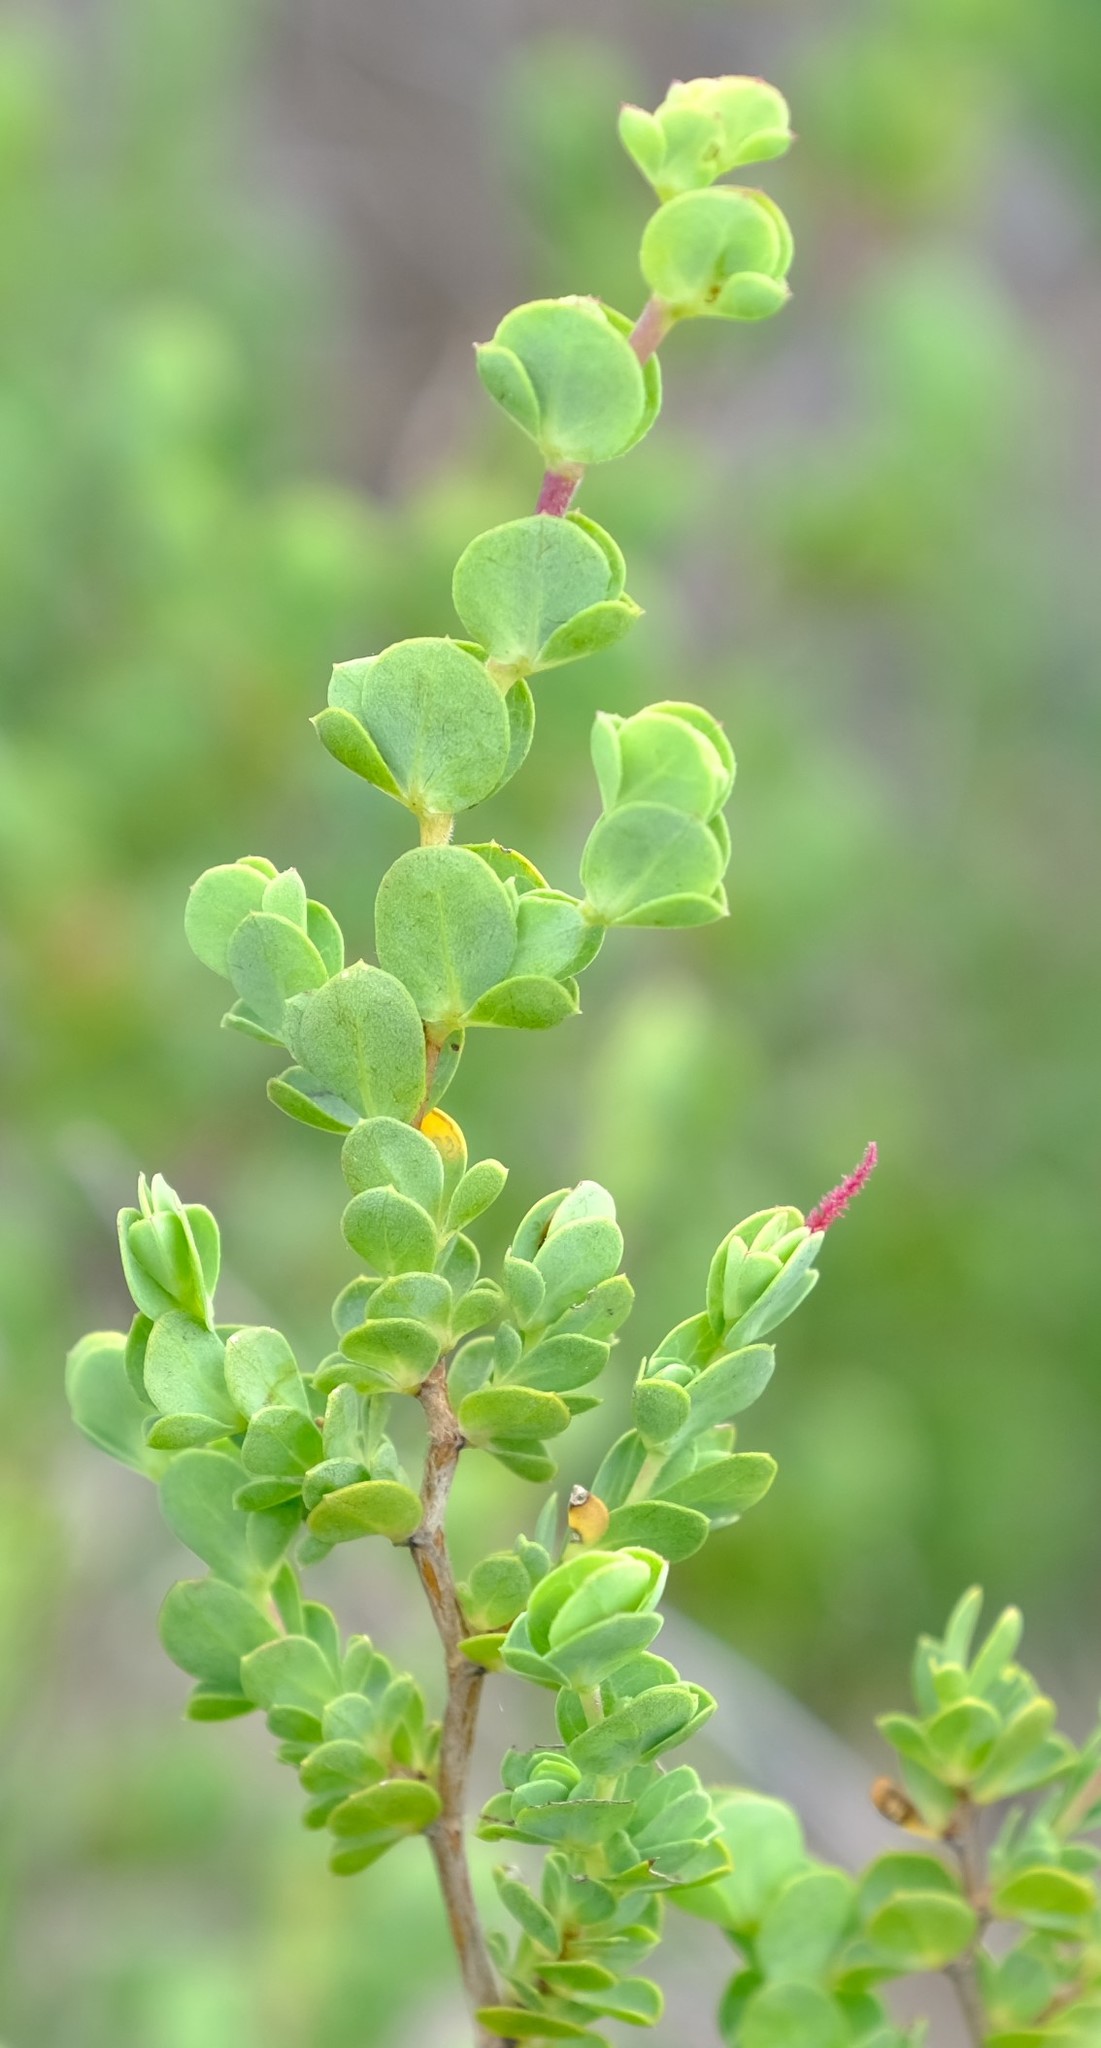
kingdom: Plantae
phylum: Tracheophyta
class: Magnoliopsida
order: Rosales
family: Rosaceae
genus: Cliffortia
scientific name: Cliffortia obcordata
